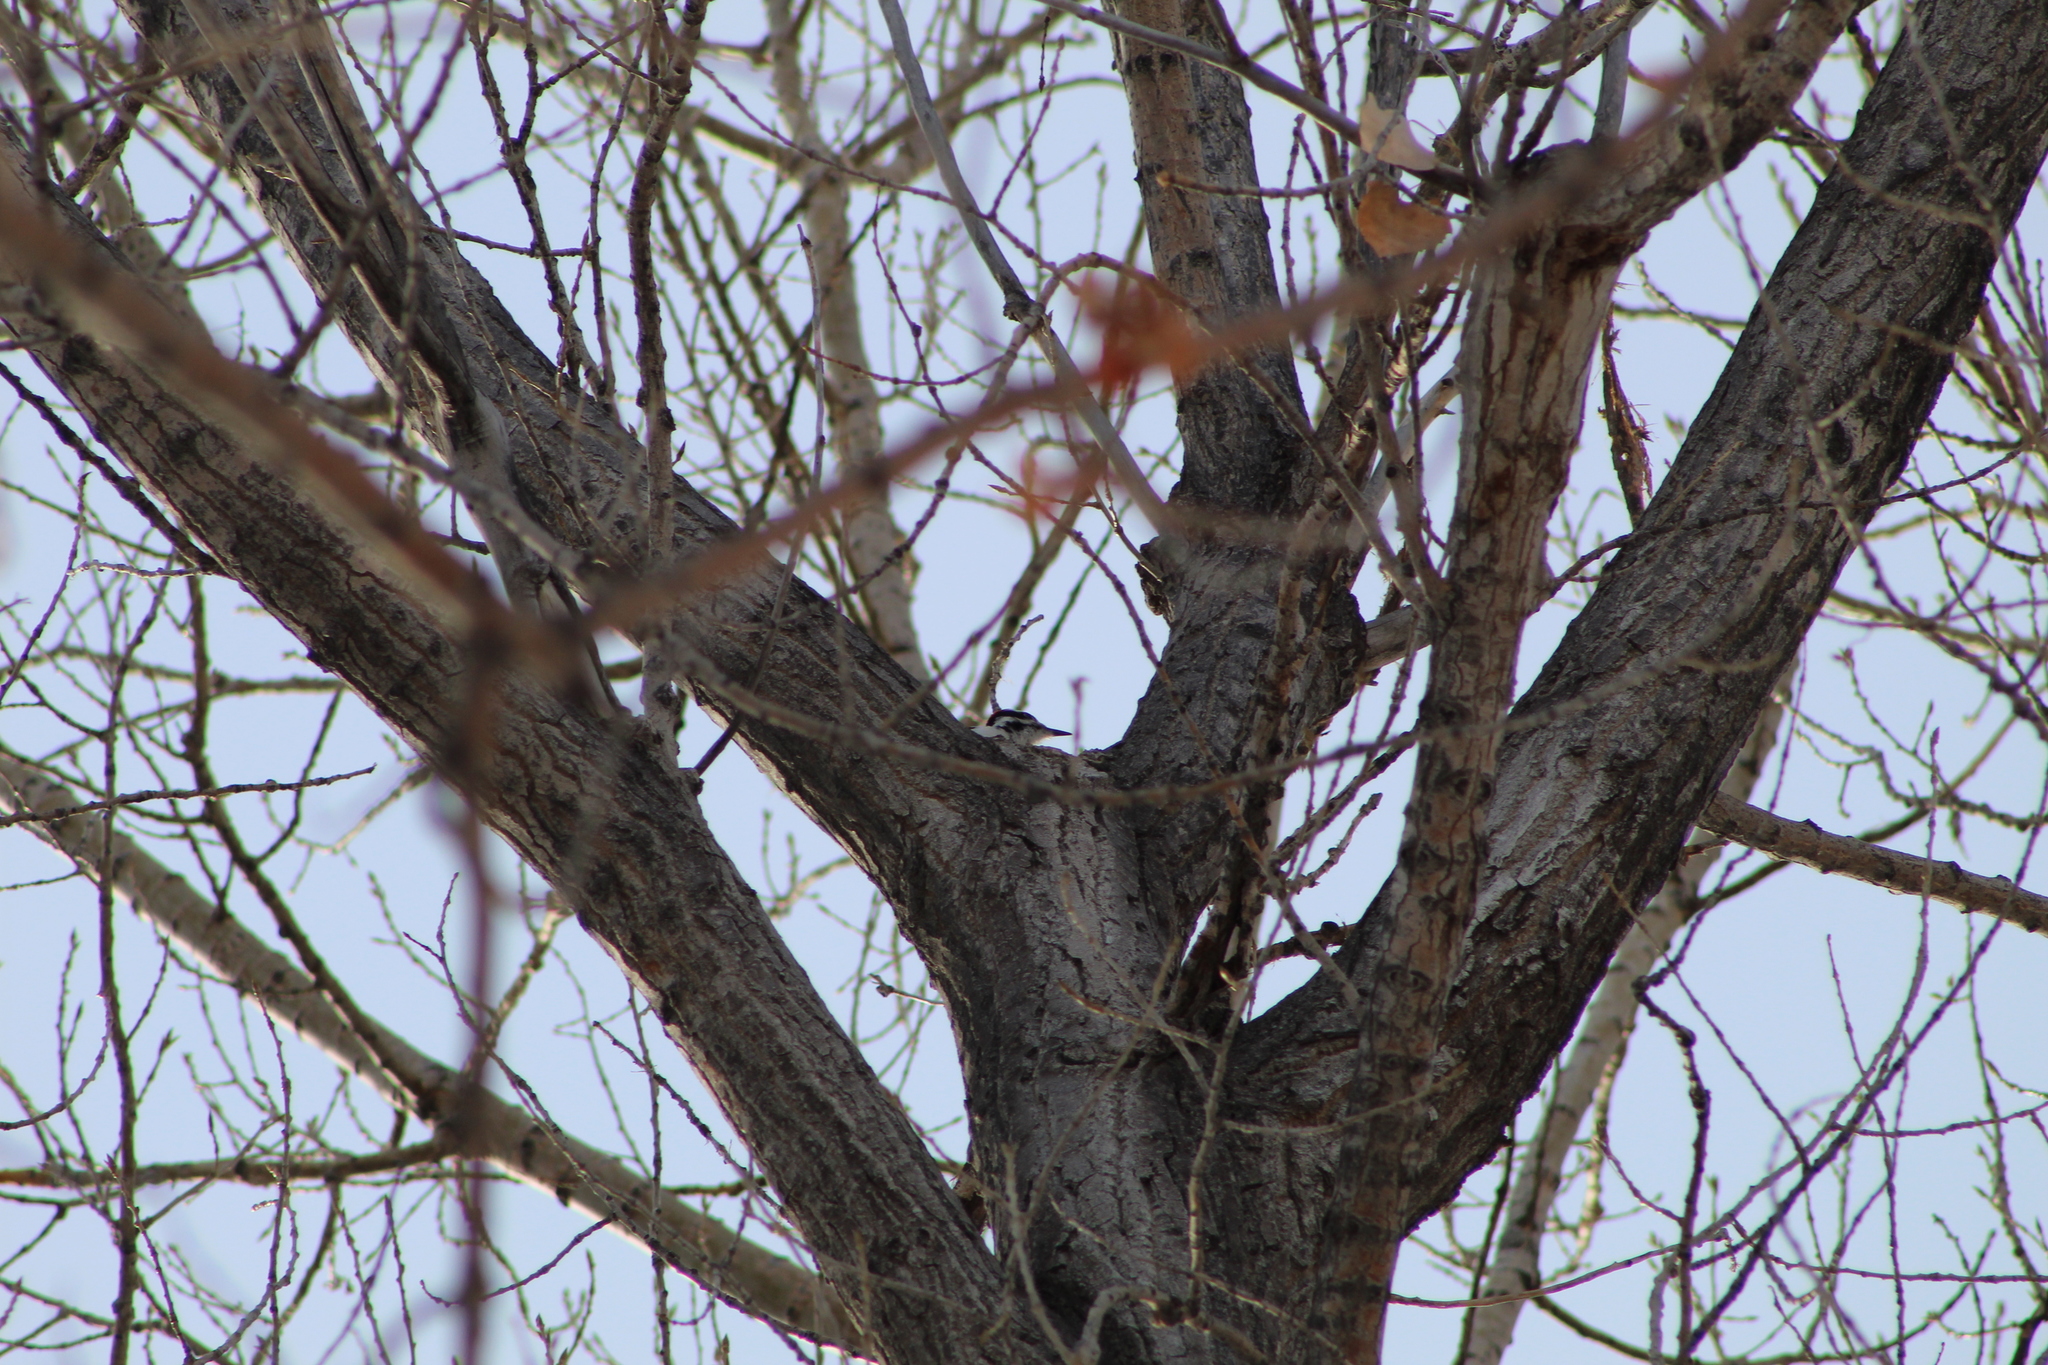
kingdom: Animalia
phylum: Chordata
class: Aves
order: Piciformes
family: Picidae
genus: Leuconotopicus
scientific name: Leuconotopicus villosus
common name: Hairy woodpecker
